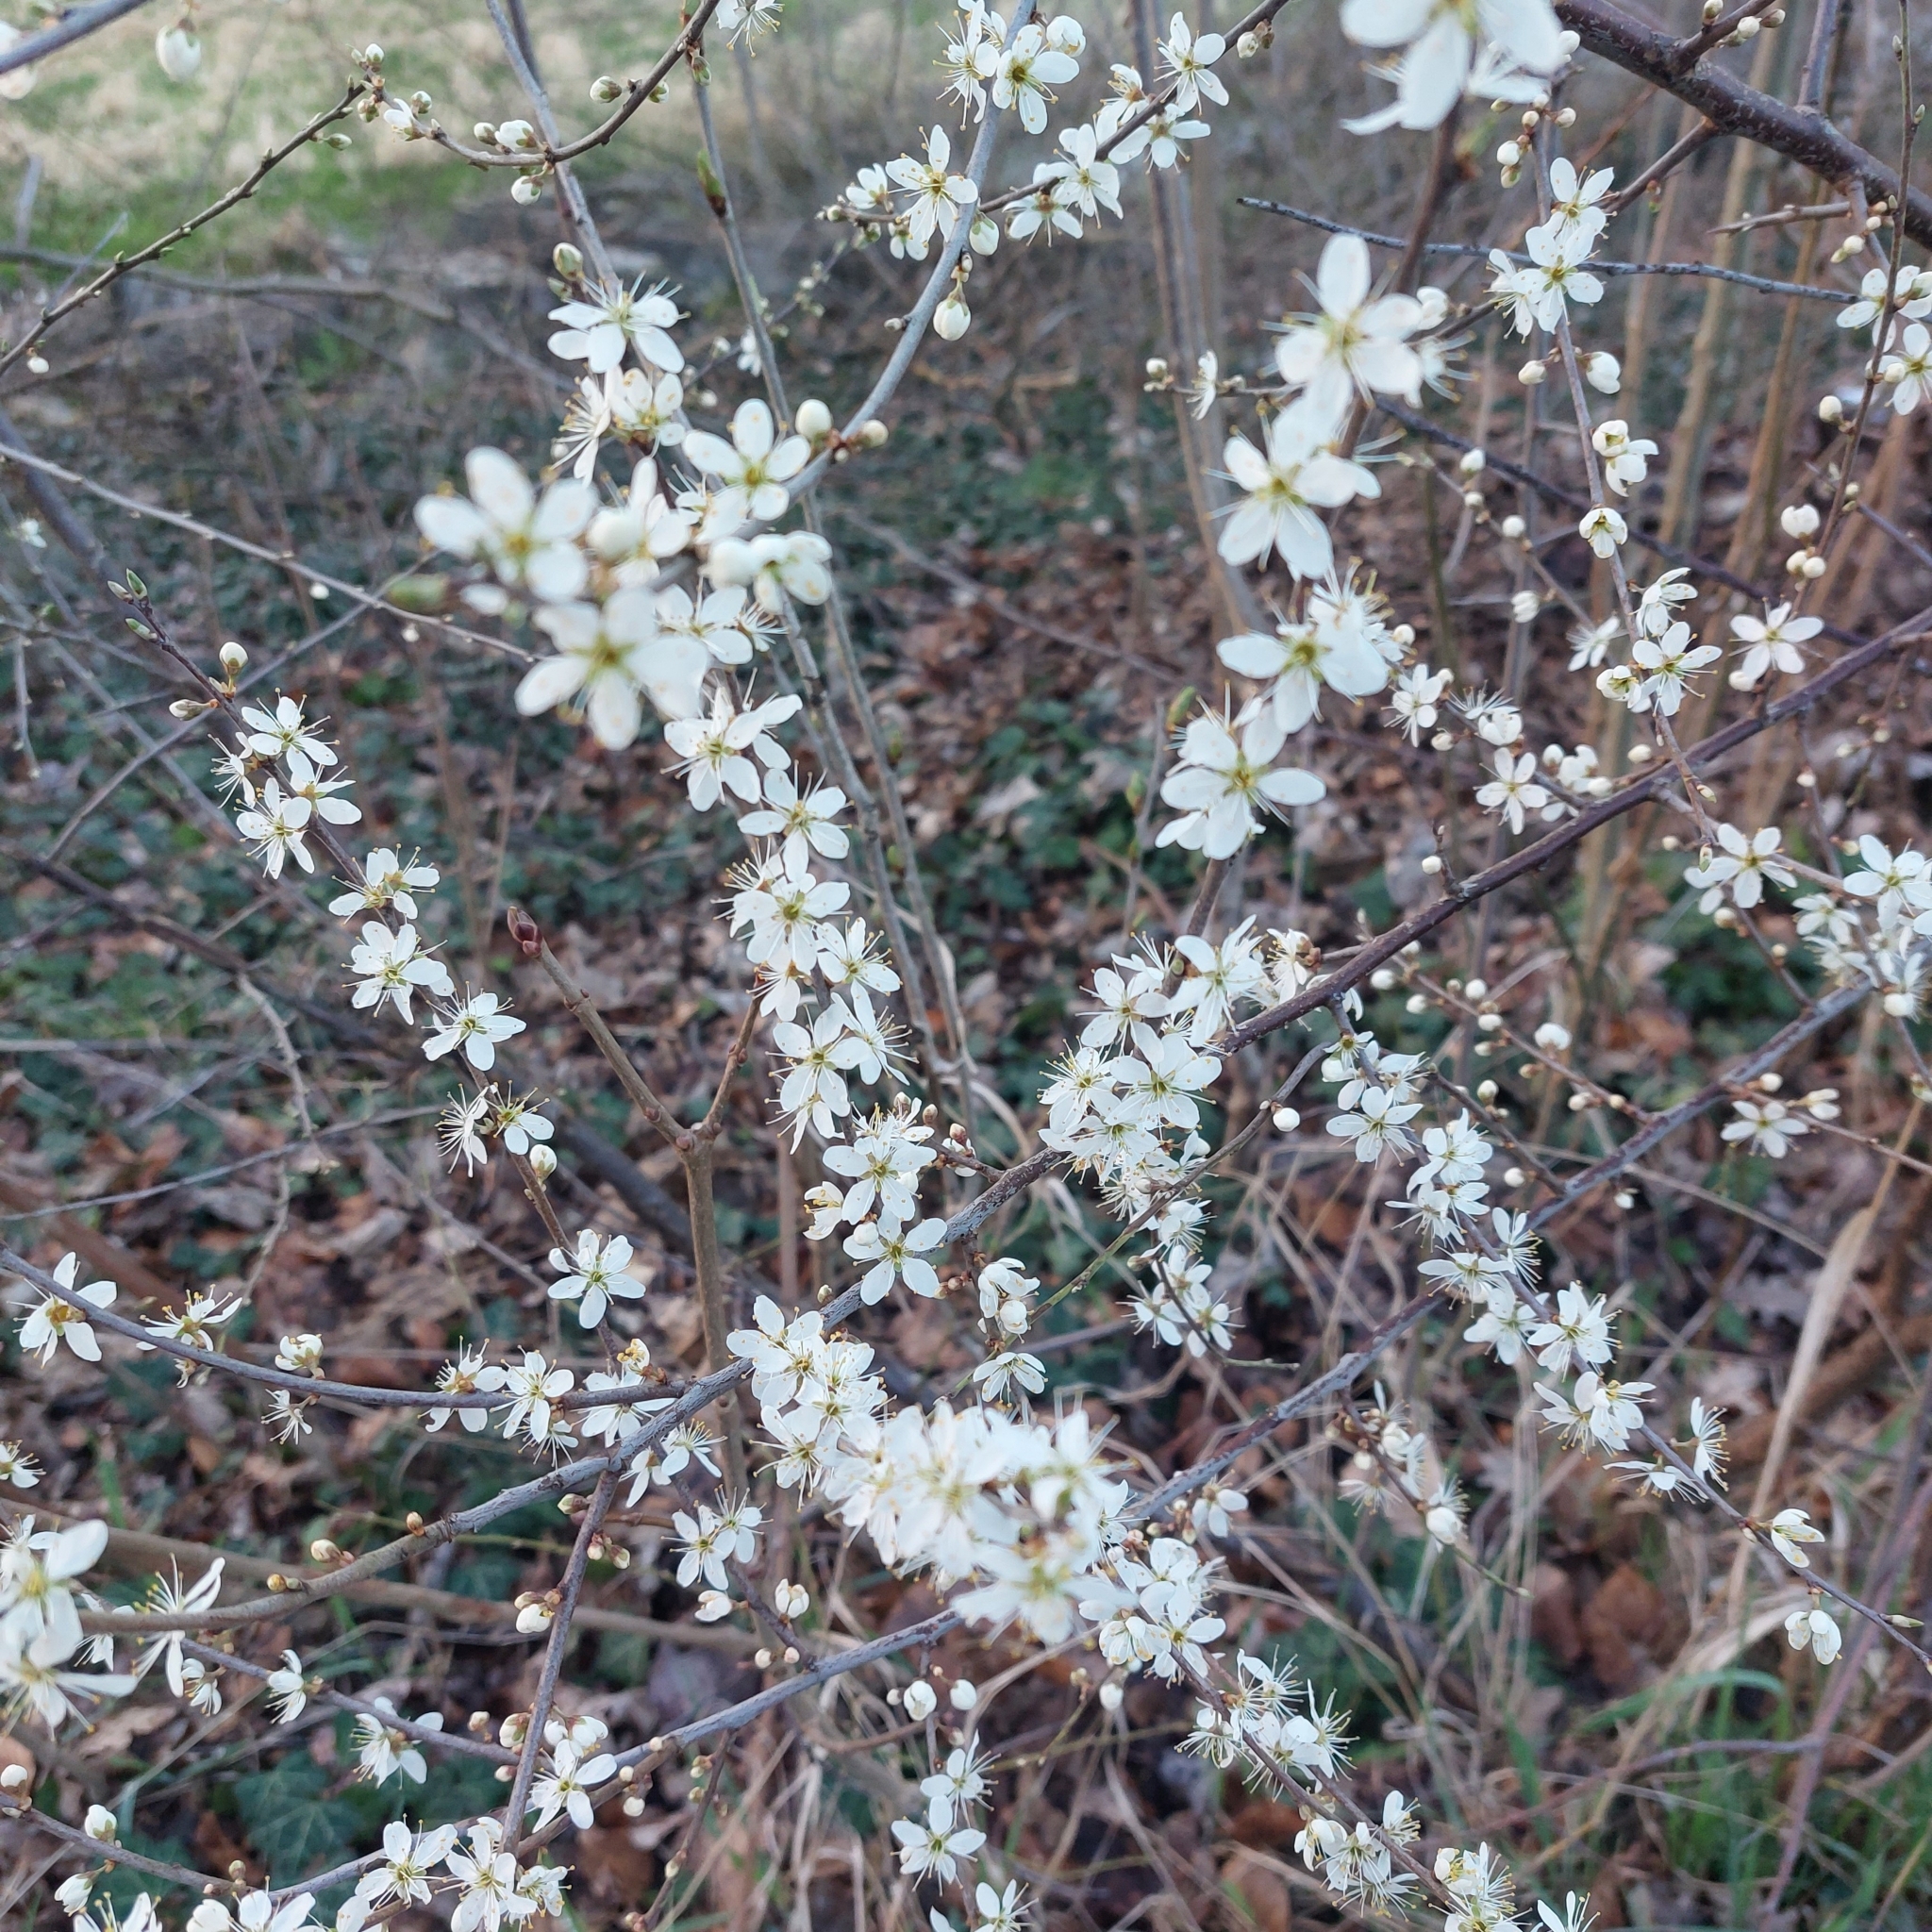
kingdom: Plantae
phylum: Tracheophyta
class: Magnoliopsida
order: Rosales
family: Rosaceae
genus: Prunus
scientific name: Prunus spinosa
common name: Blackthorn
